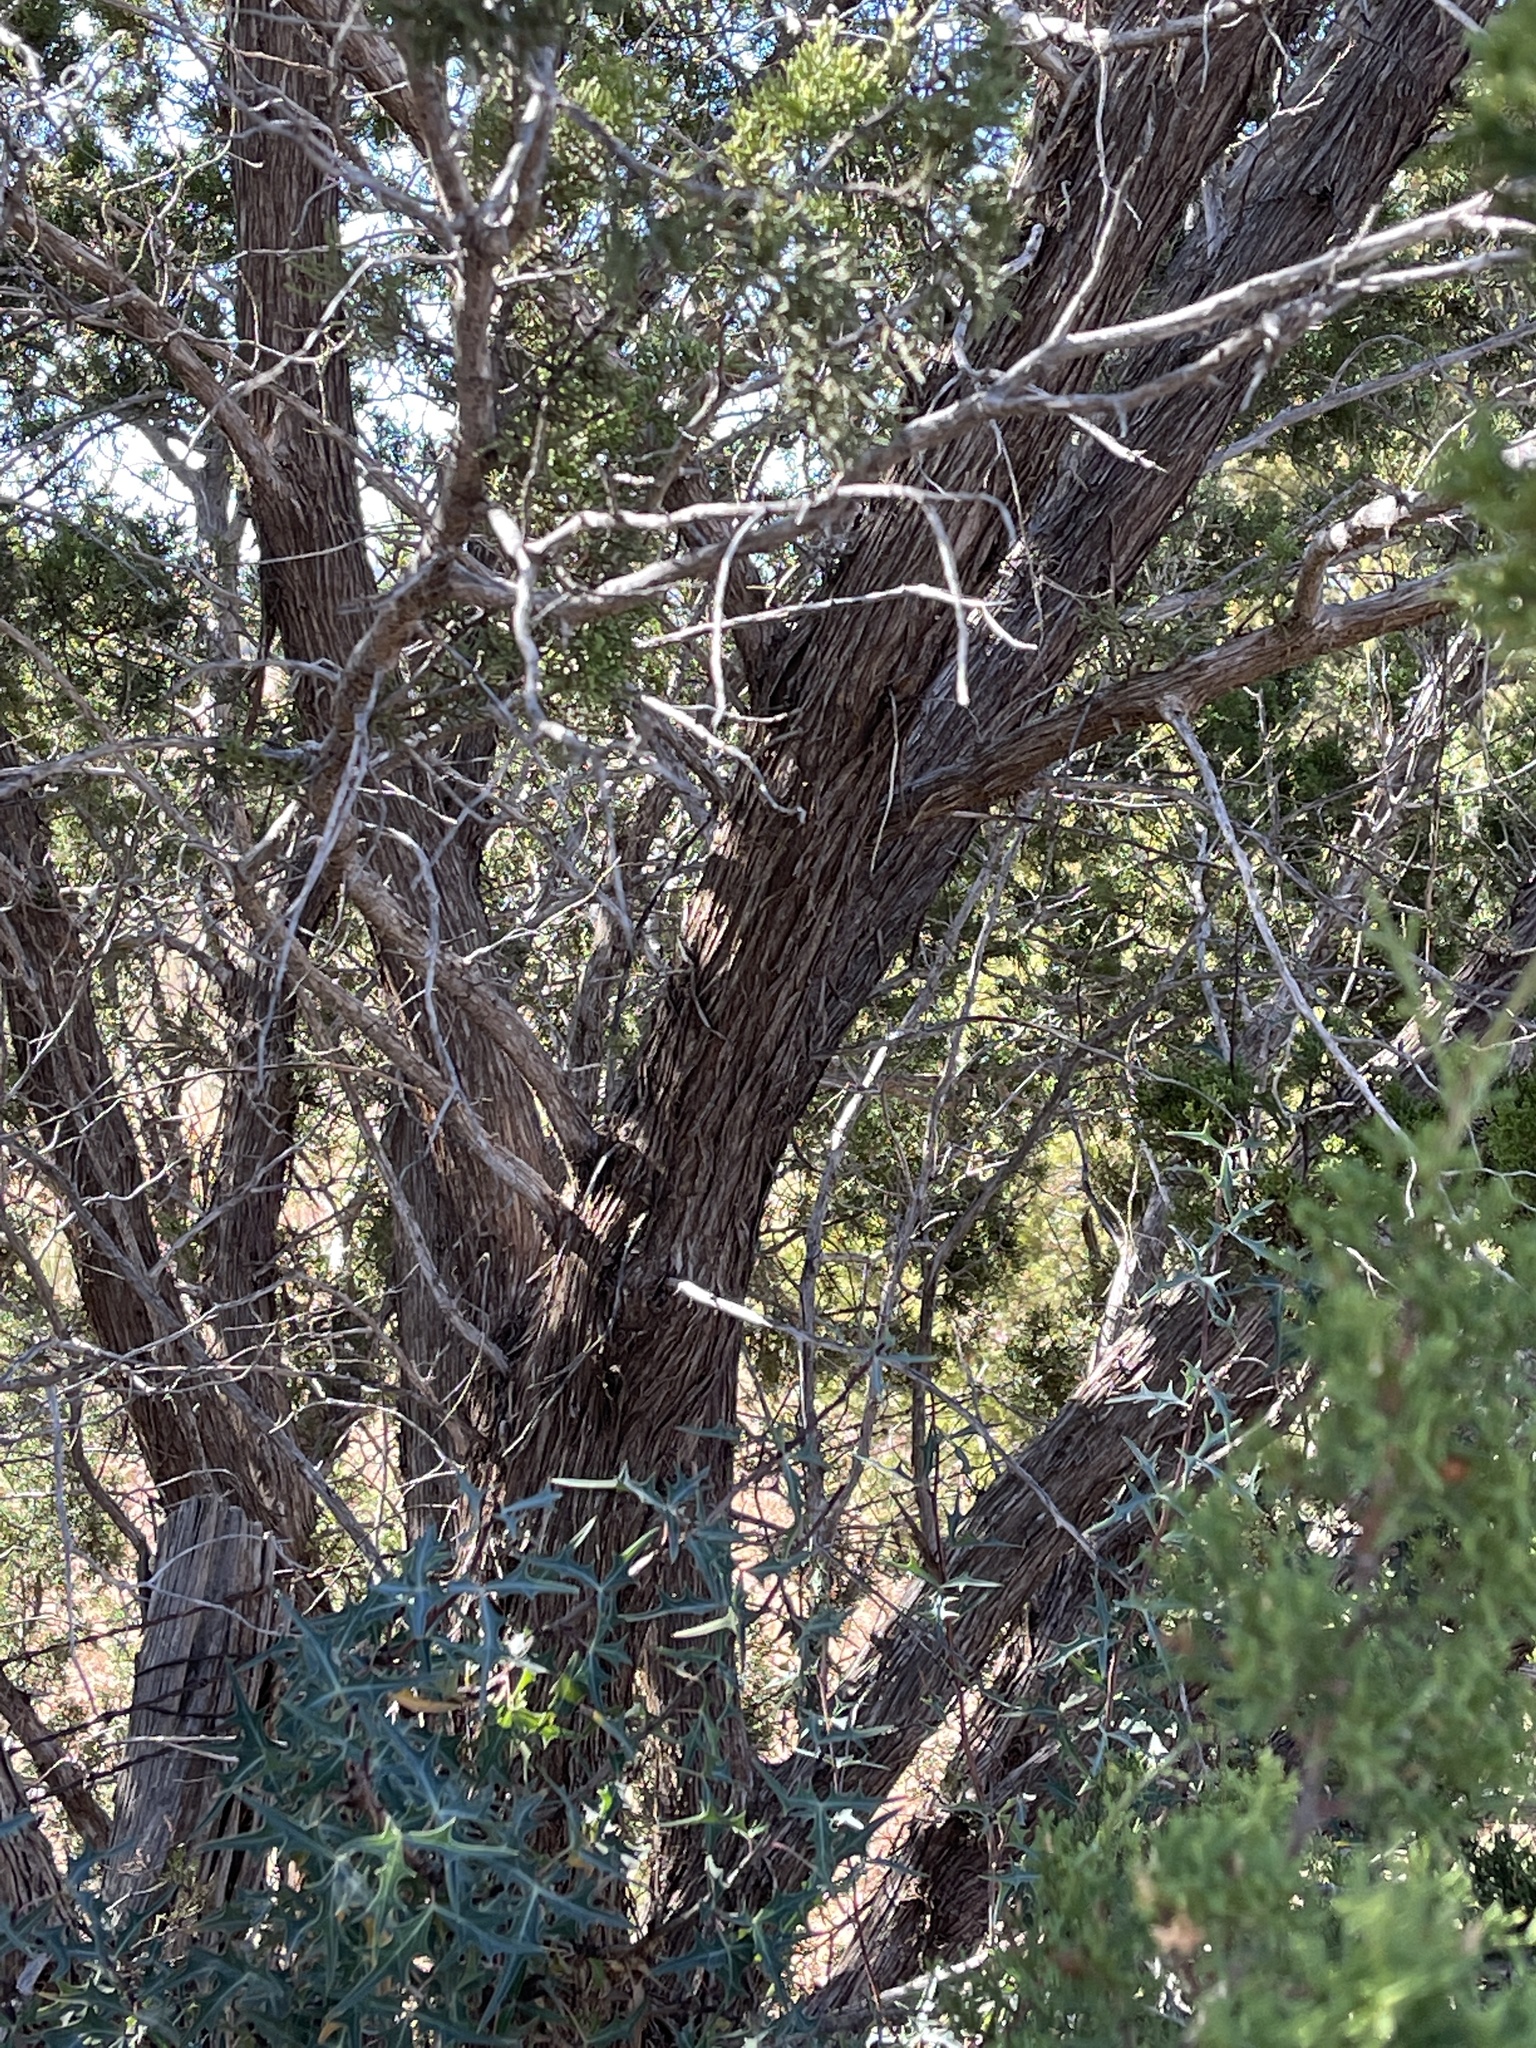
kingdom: Plantae
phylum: Tracheophyta
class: Pinopsida
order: Pinales
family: Cupressaceae
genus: Juniperus
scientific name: Juniperus pinchotii
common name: Pinchot juniper
